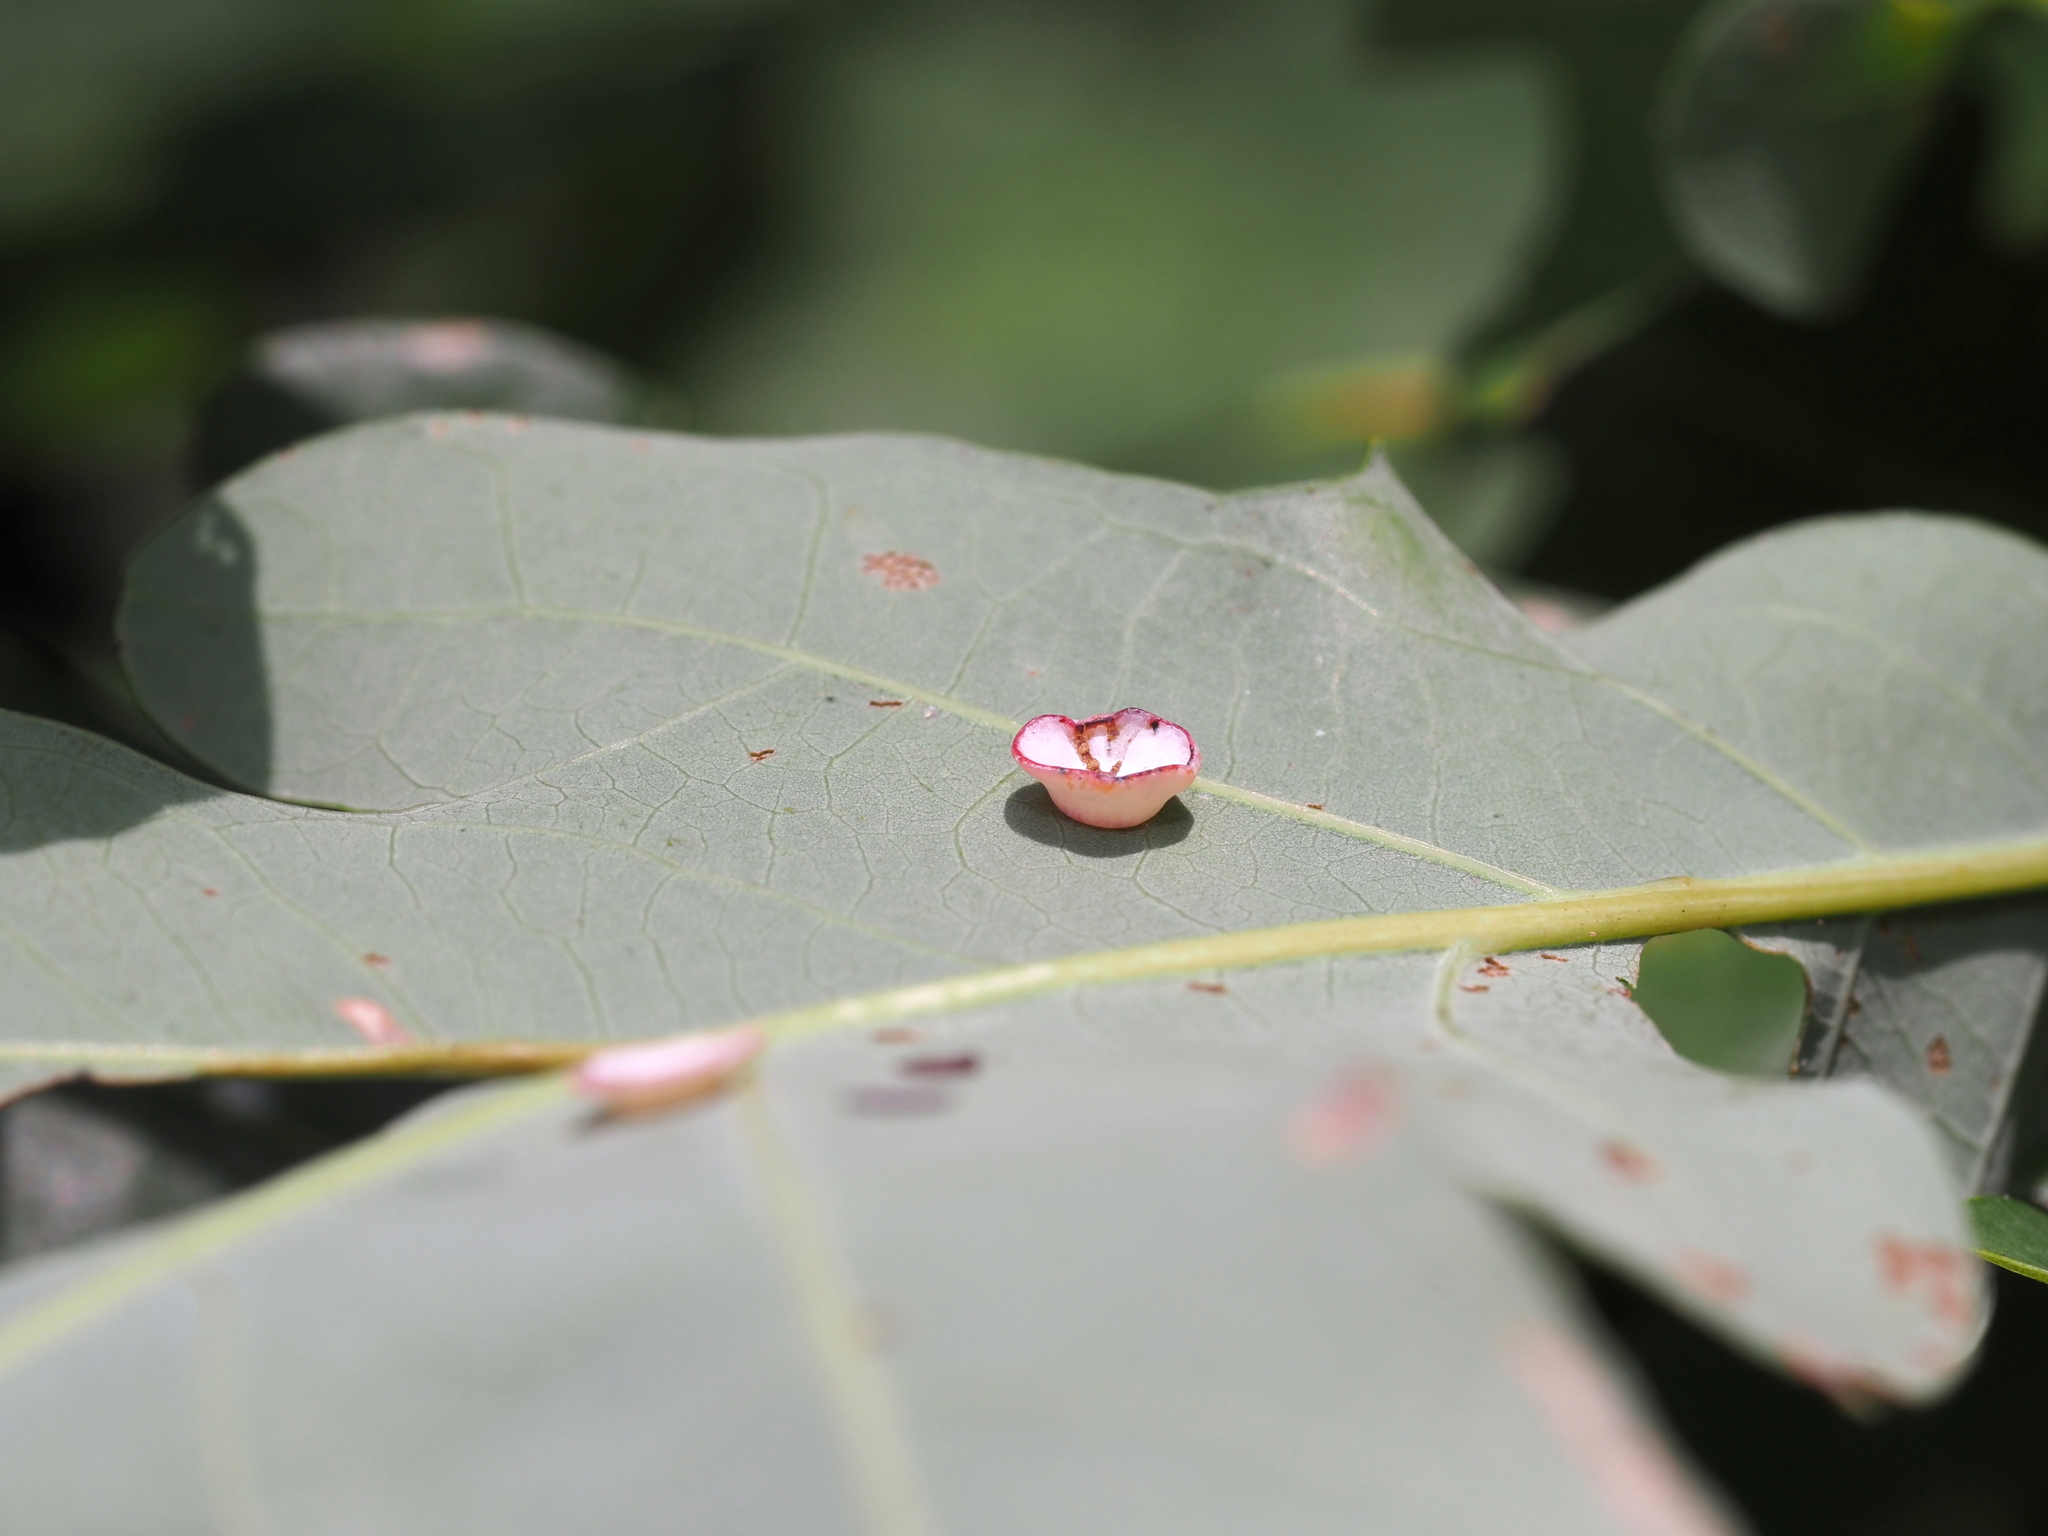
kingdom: Animalia
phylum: Arthropoda
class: Insecta
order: Hymenoptera
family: Cynipidae
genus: Phylloteras
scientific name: Phylloteras poculum
